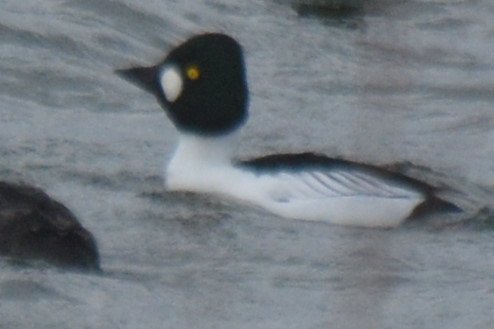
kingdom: Animalia
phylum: Chordata
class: Aves
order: Anseriformes
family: Anatidae
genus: Bucephala
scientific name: Bucephala clangula
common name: Common goldeneye
